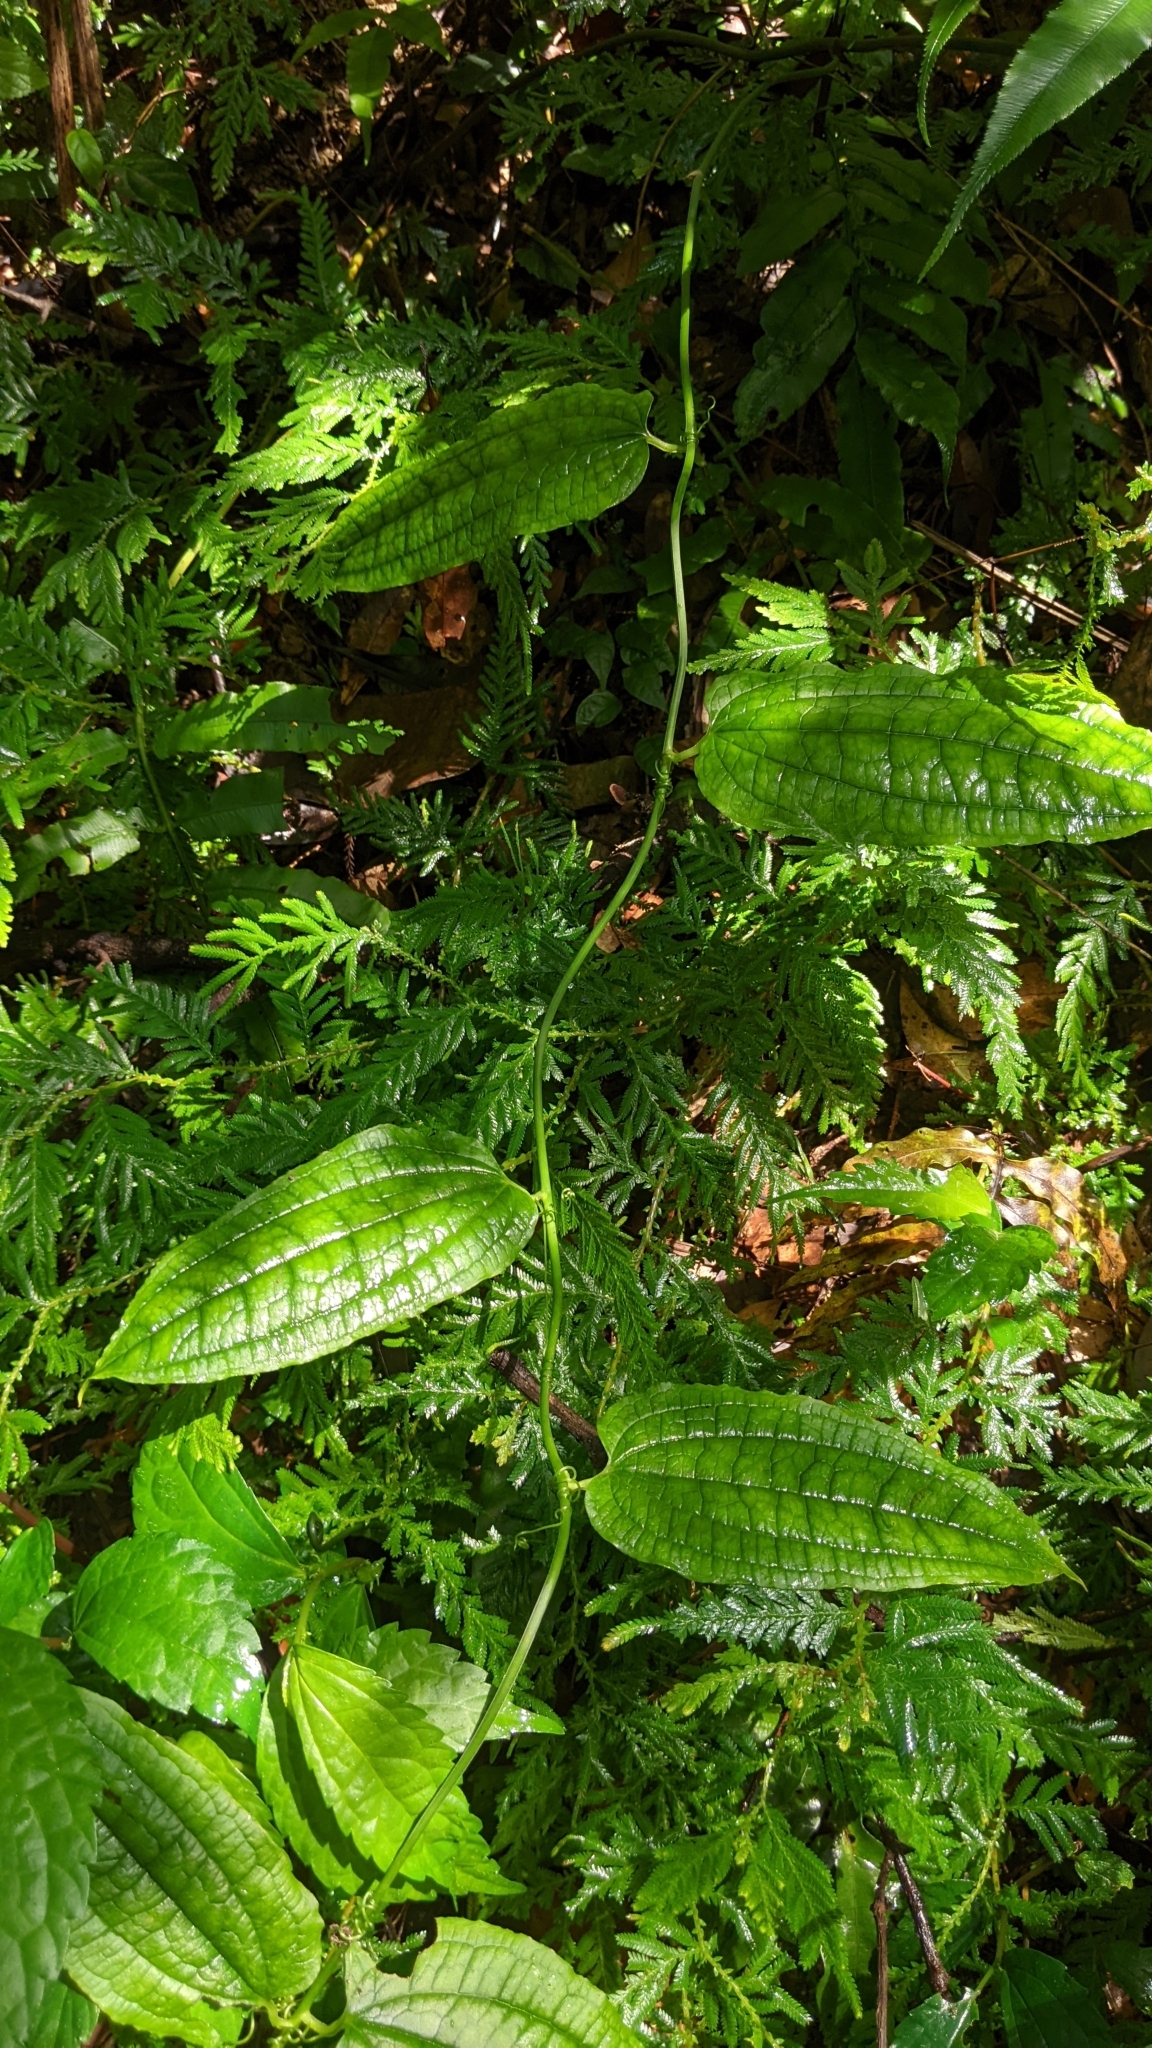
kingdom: Plantae
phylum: Tracheophyta
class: Liliopsida
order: Liliales
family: Smilacaceae
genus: Smilax
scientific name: Smilax riparia
